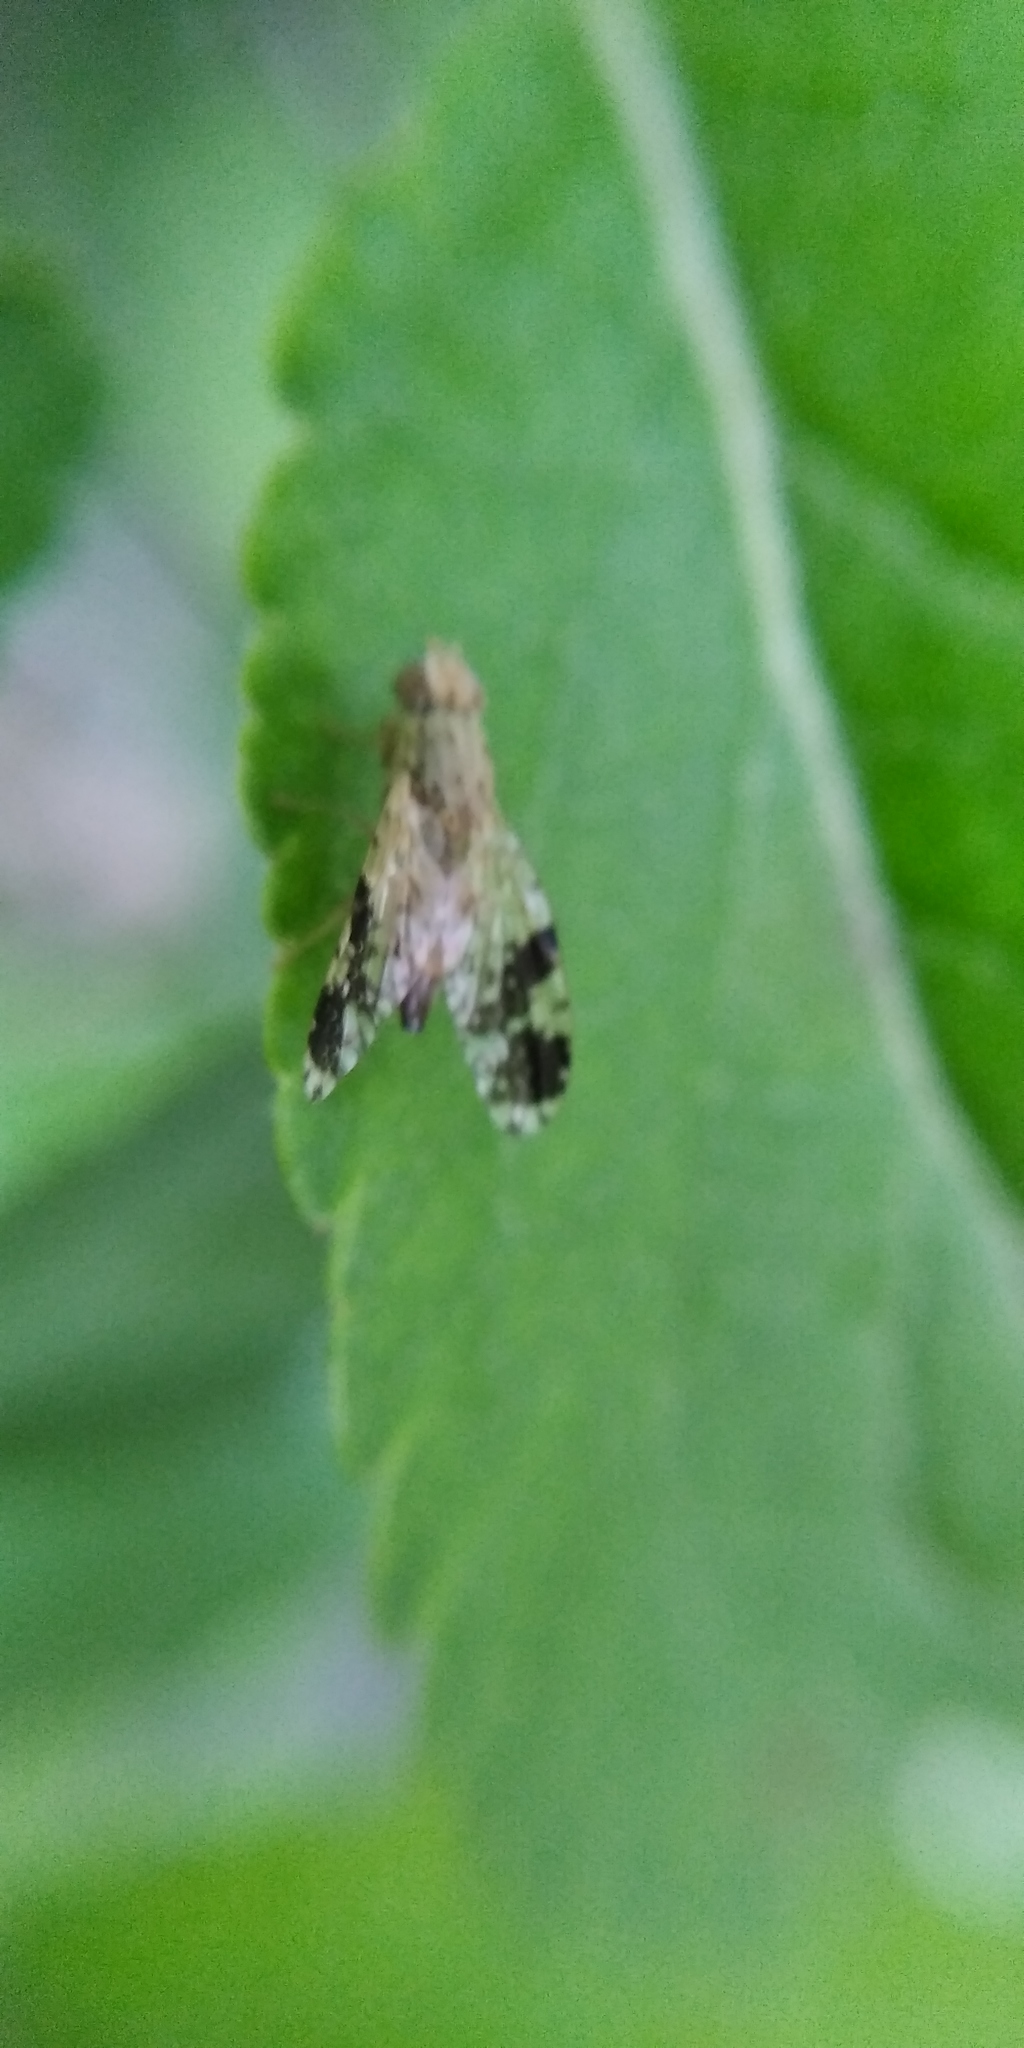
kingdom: Animalia
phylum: Arthropoda
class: Insecta
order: Diptera
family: Tephritidae
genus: Tephritis
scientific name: Tephritis bardanae
